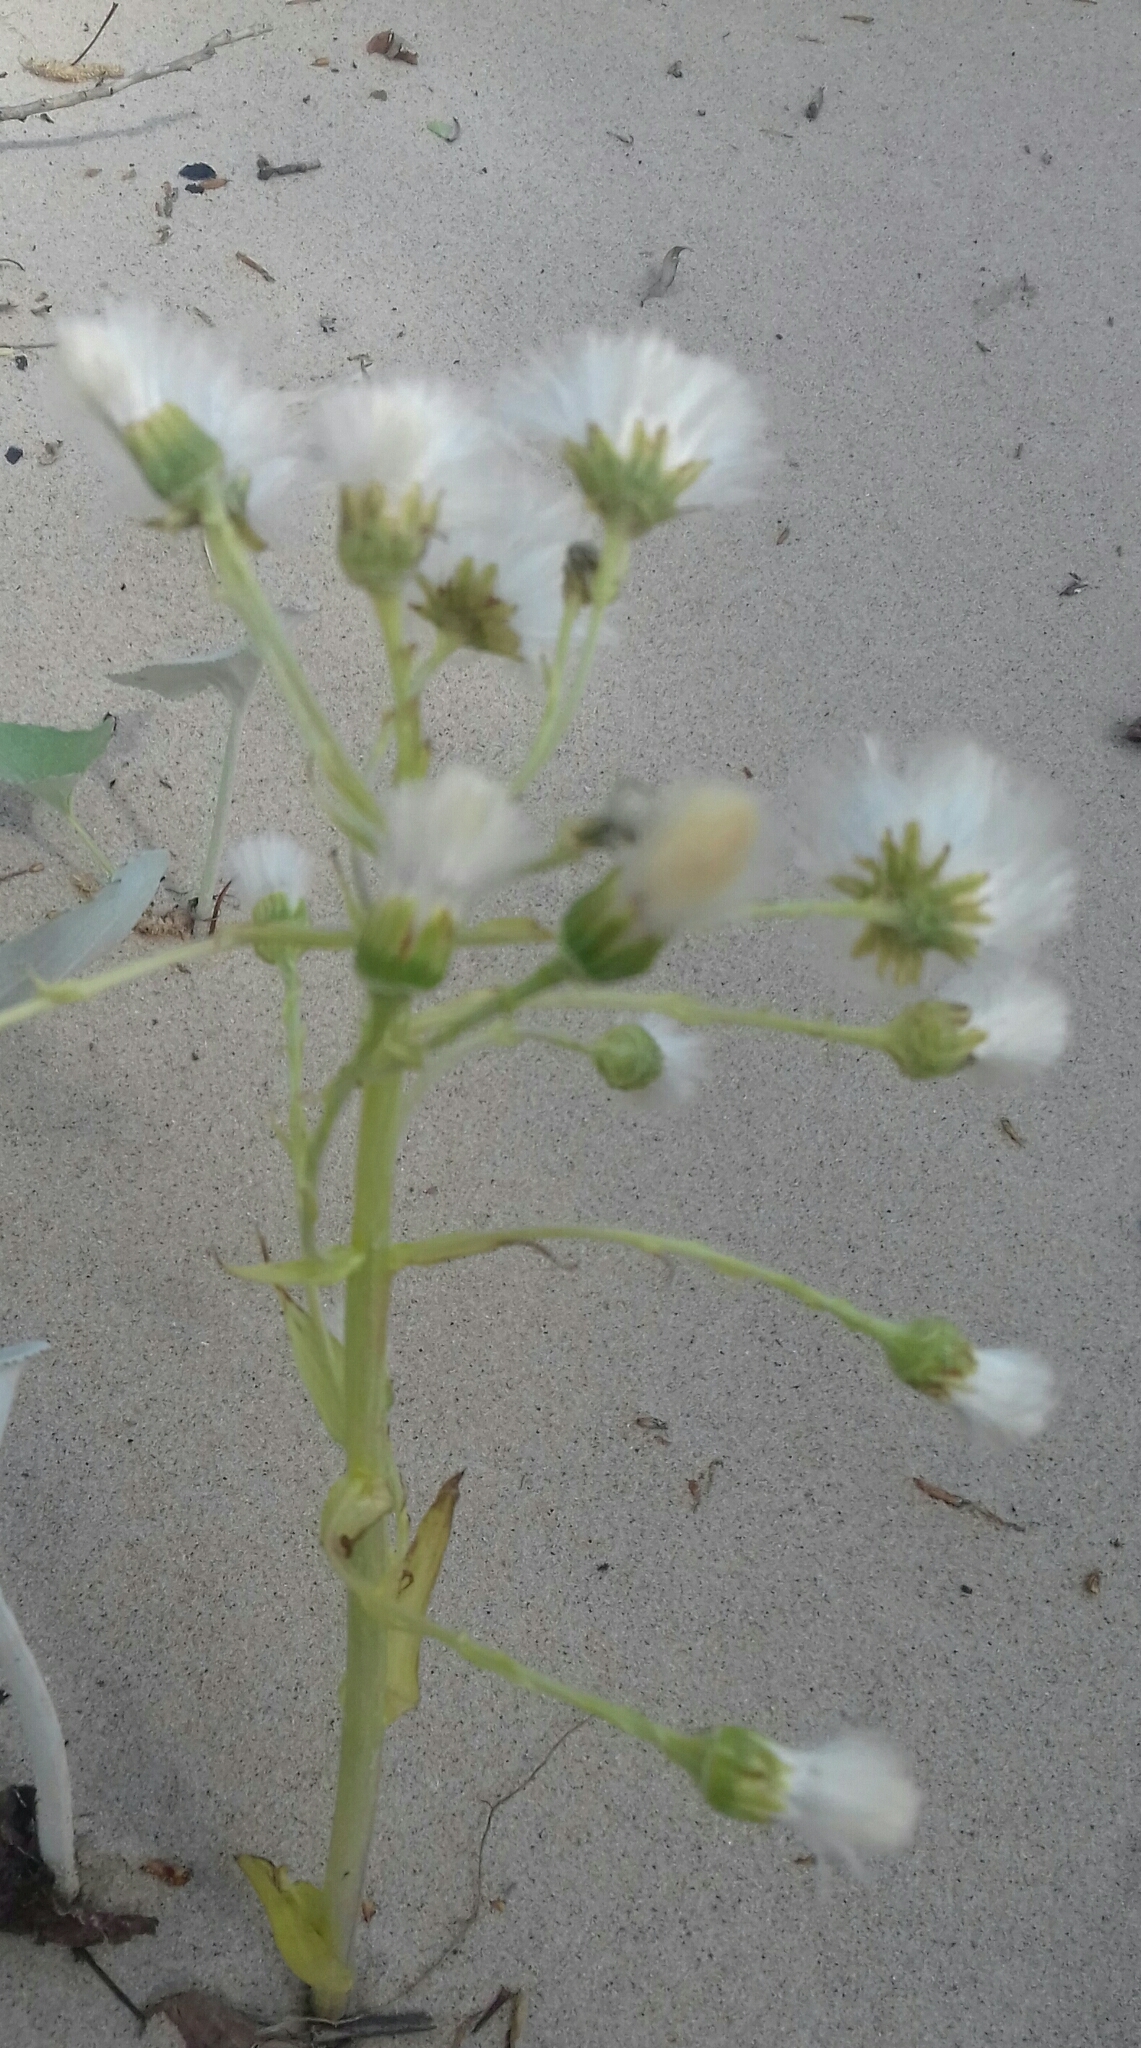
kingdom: Plantae
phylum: Tracheophyta
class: Magnoliopsida
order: Asterales
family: Asteraceae
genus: Petasites
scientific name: Petasites spurius
